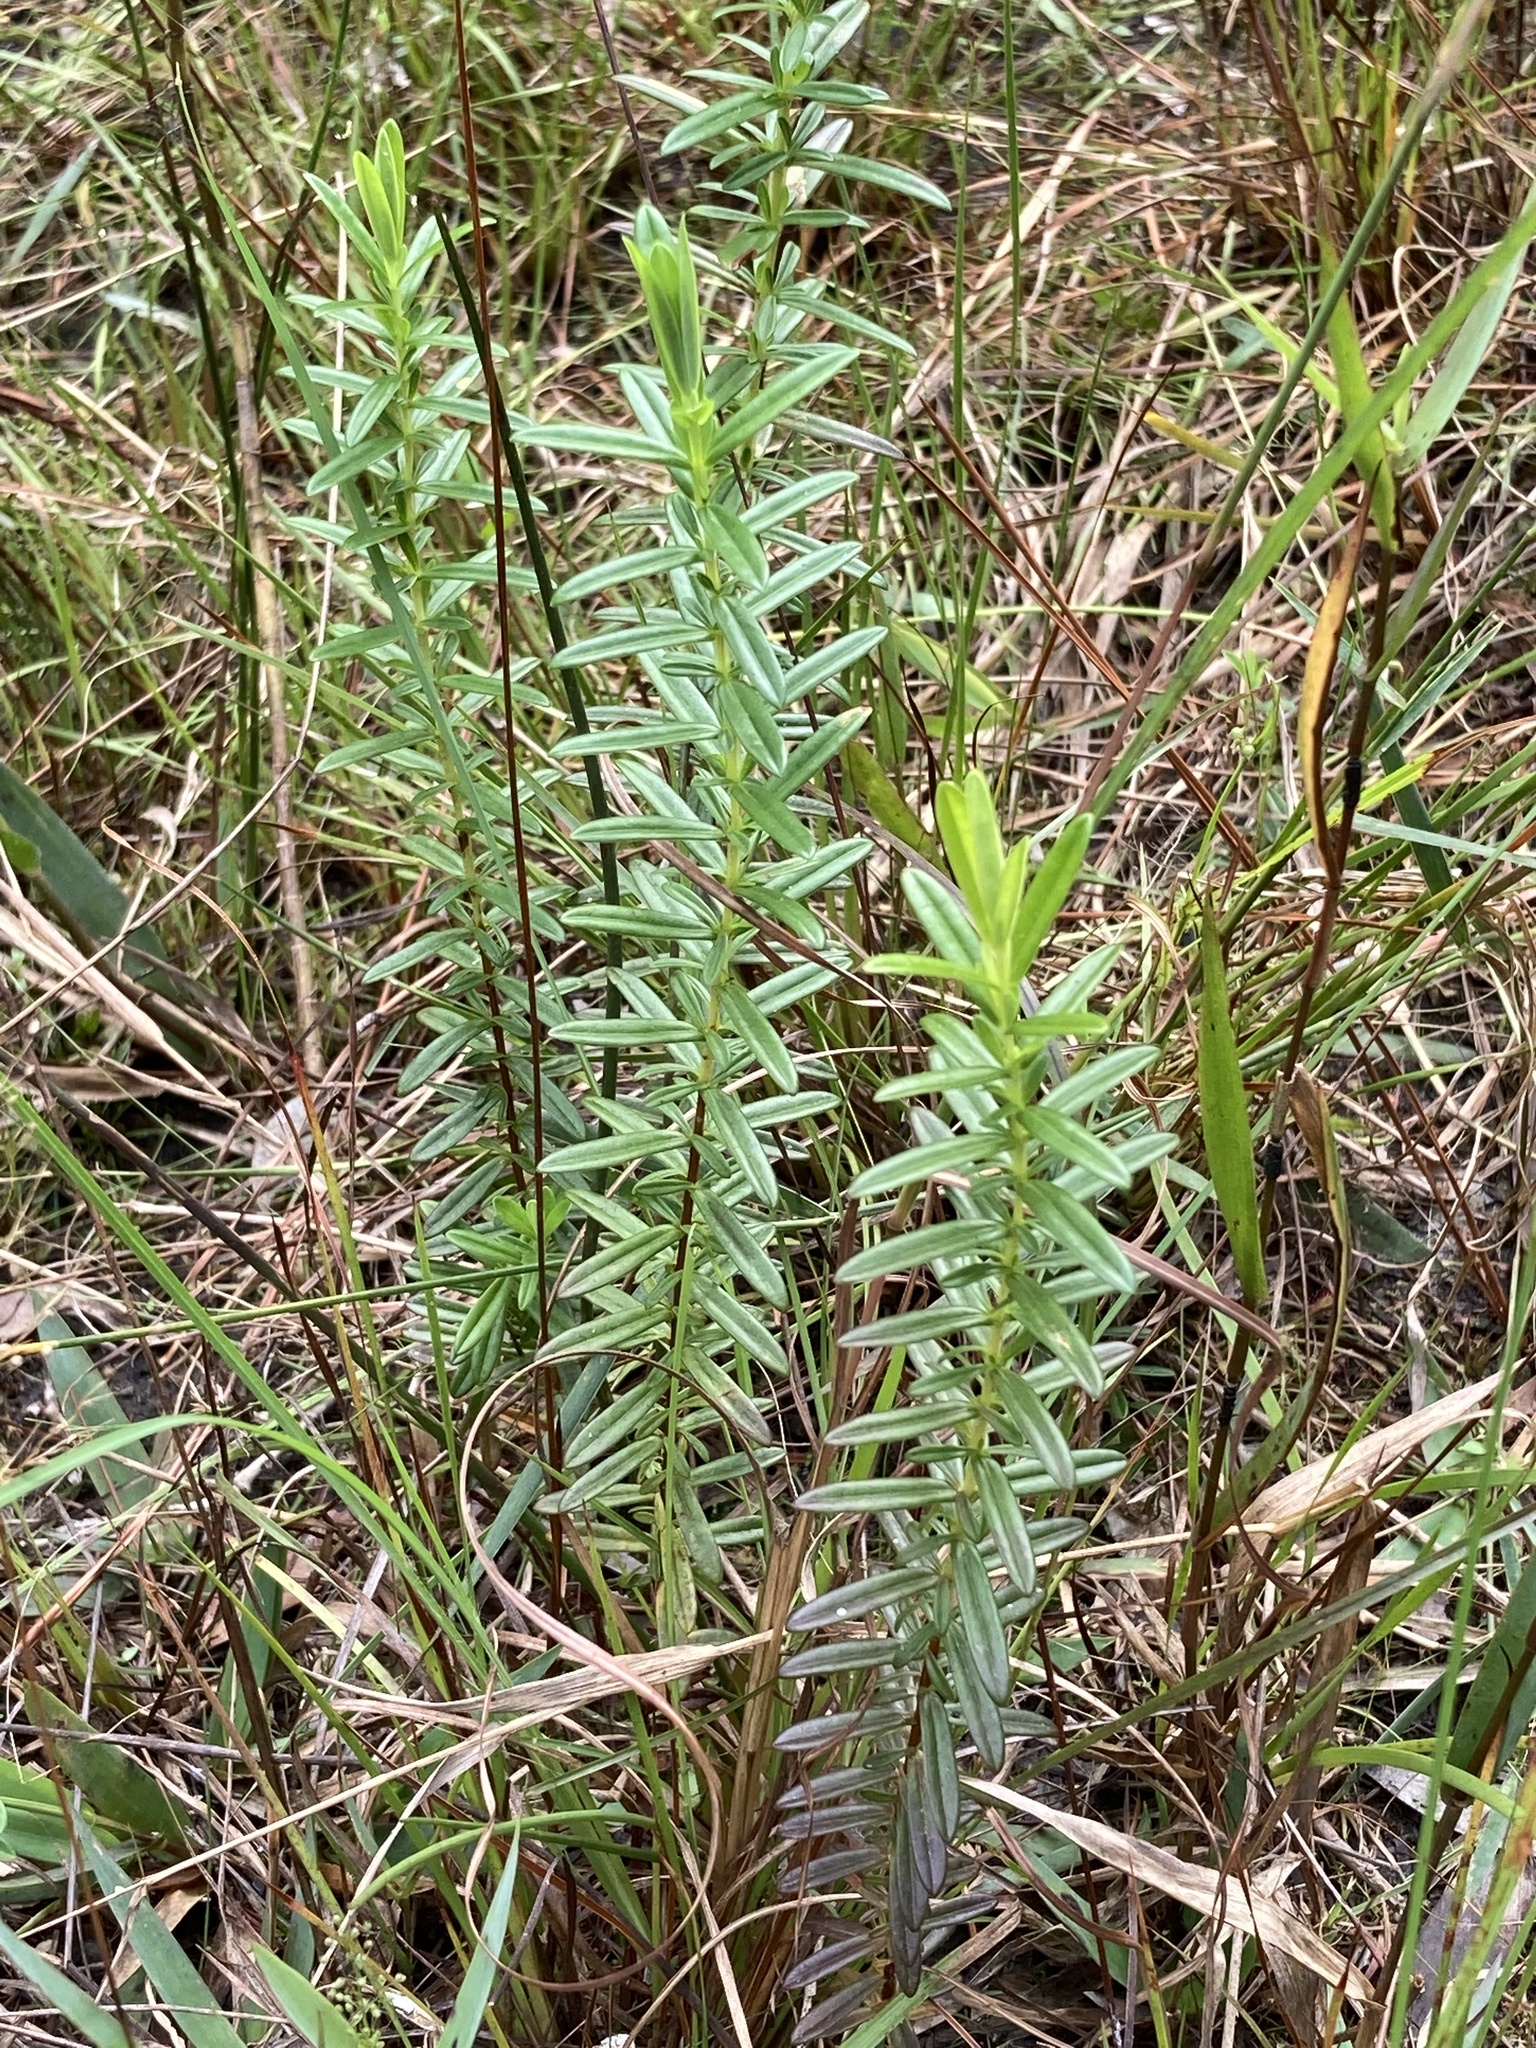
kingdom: Plantae
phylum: Tracheophyta
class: Magnoliopsida
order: Malpighiales
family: Hypericaceae
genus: Hypericum
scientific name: Hypericum cistifolium
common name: Round-pod st. john's-wort
